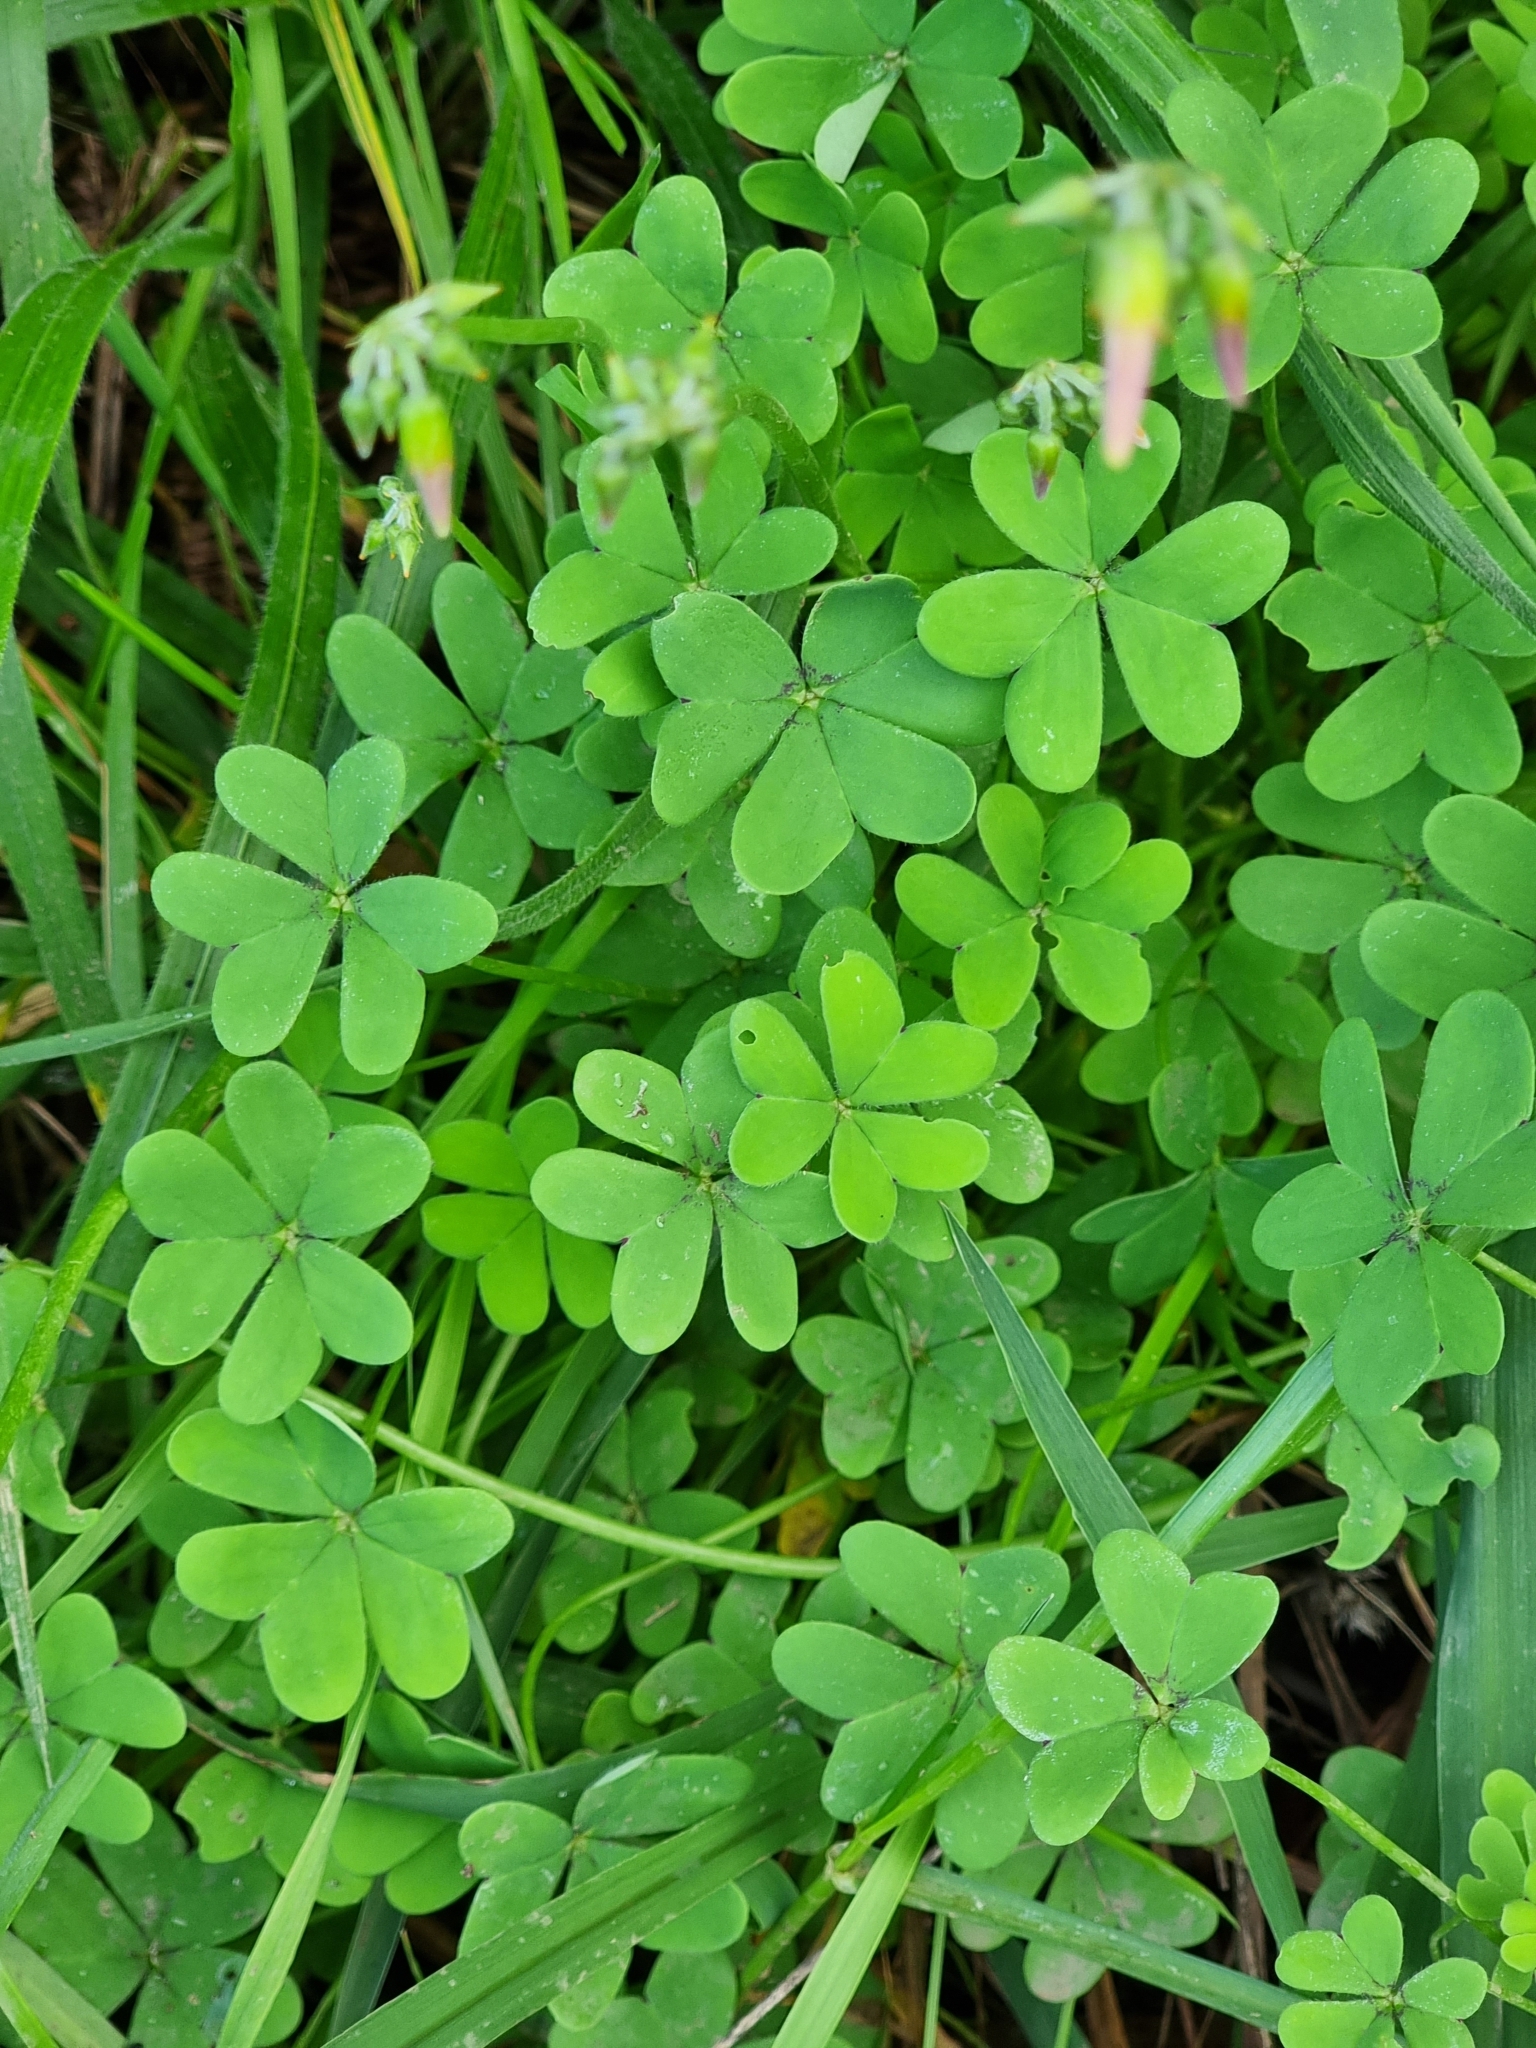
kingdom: Plantae
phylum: Tracheophyta
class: Magnoliopsida
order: Oxalidales
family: Oxalidaceae
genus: Oxalis
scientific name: Oxalis pes-caprae
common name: Bermuda-buttercup
